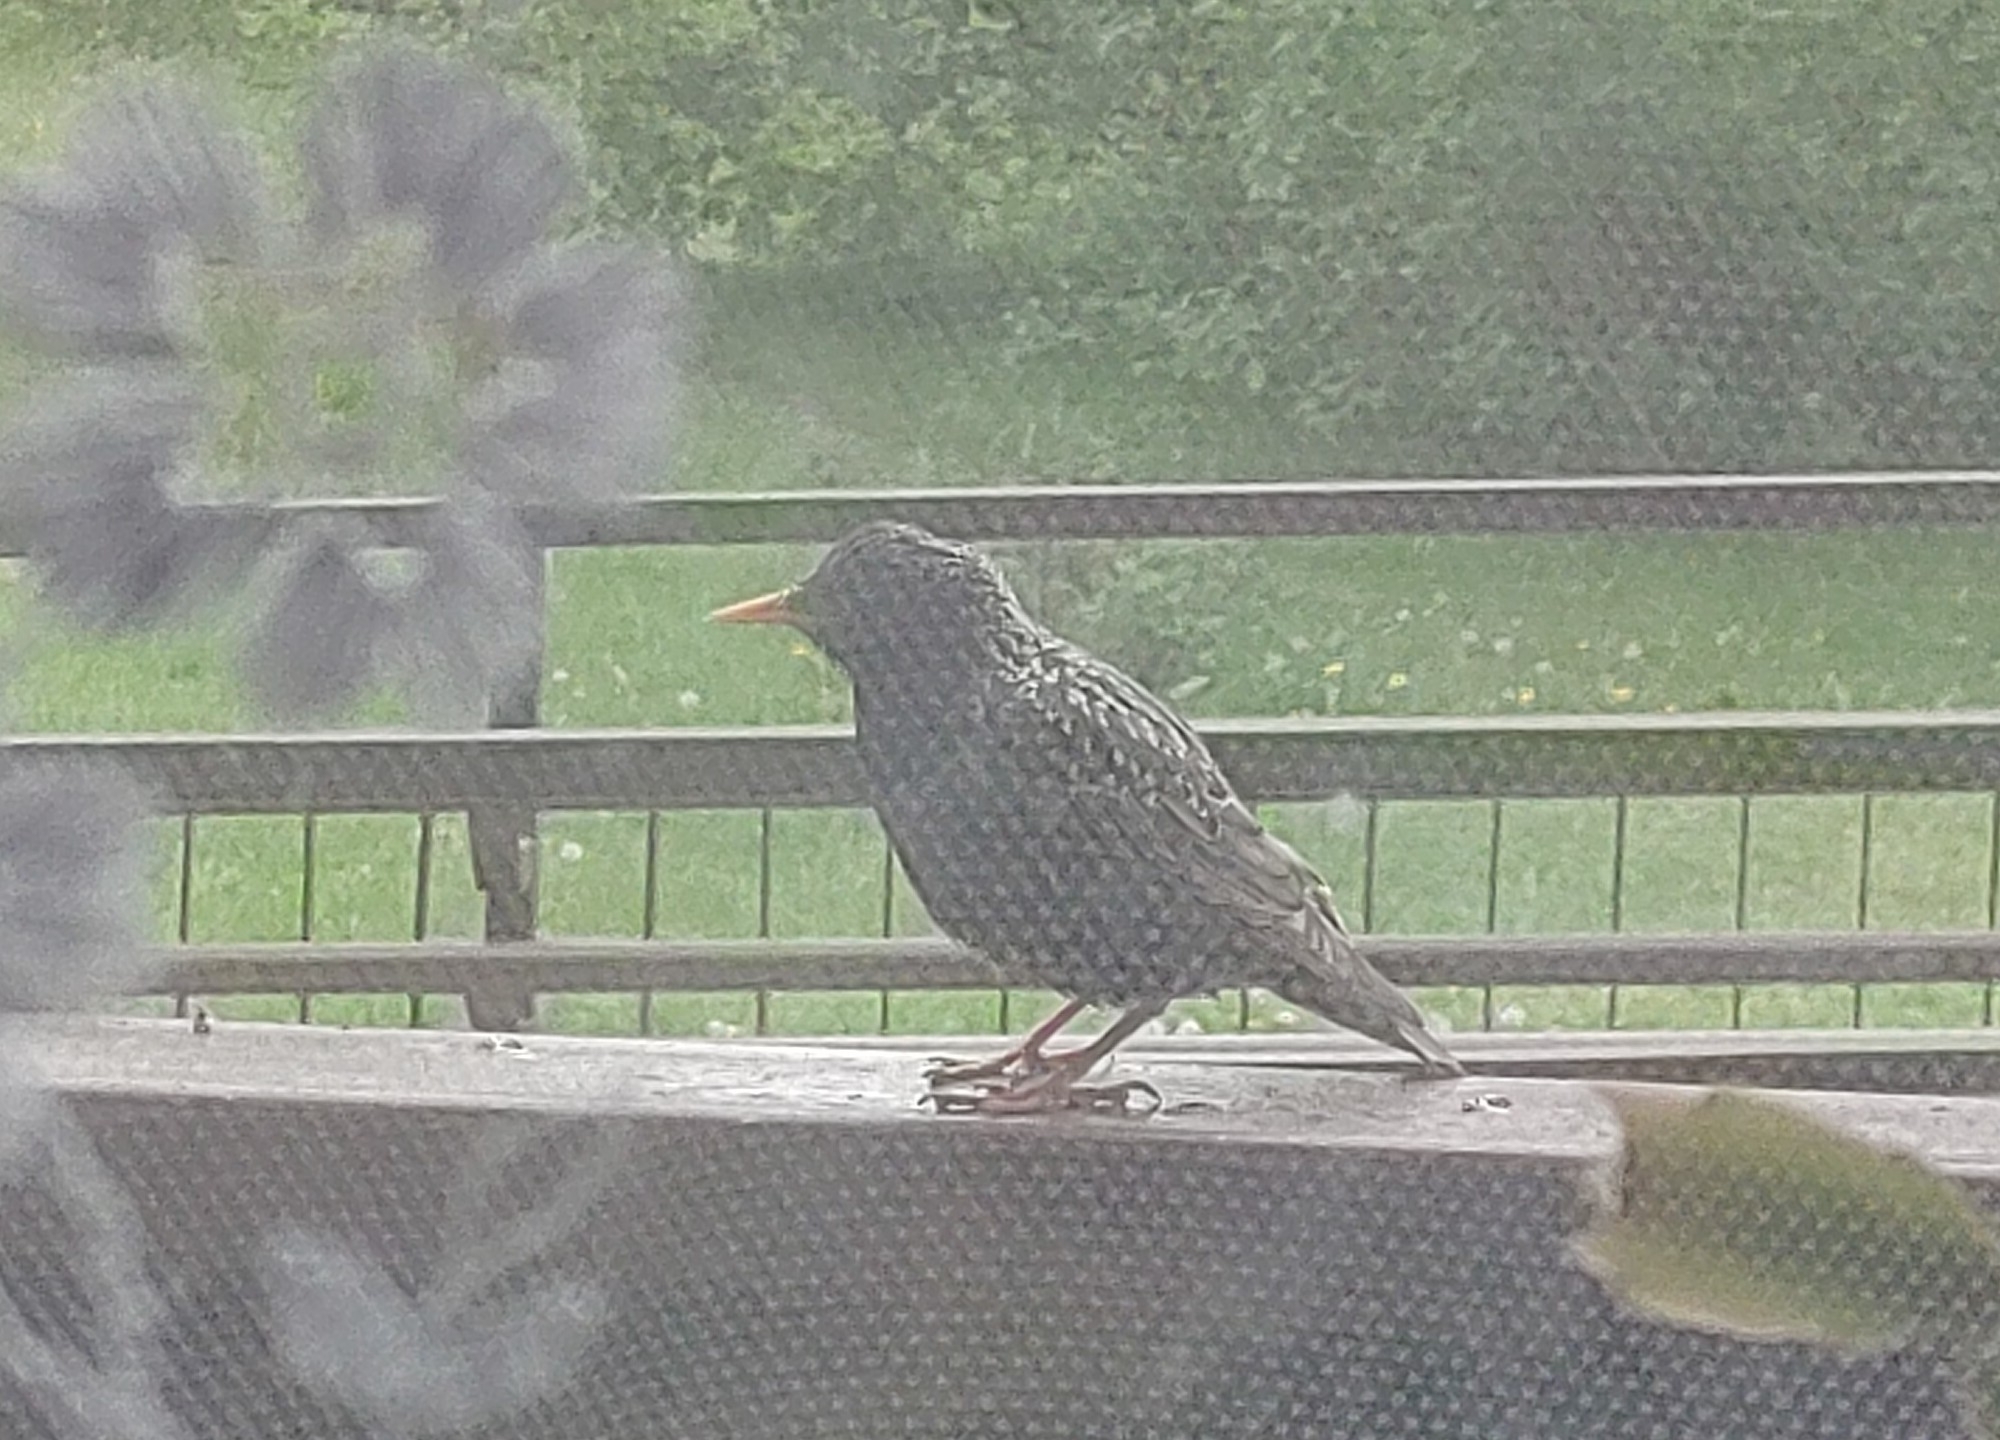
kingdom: Animalia
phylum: Chordata
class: Aves
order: Passeriformes
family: Sturnidae
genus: Sturnus
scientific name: Sturnus vulgaris
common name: Common starling
